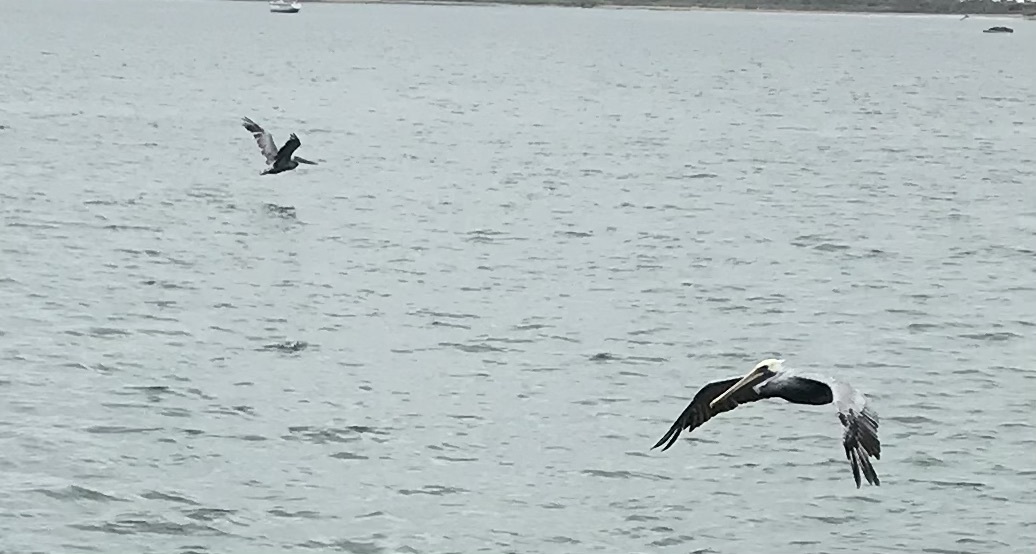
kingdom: Animalia
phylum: Chordata
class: Aves
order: Pelecaniformes
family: Pelecanidae
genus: Pelecanus
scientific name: Pelecanus occidentalis
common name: Brown pelican
